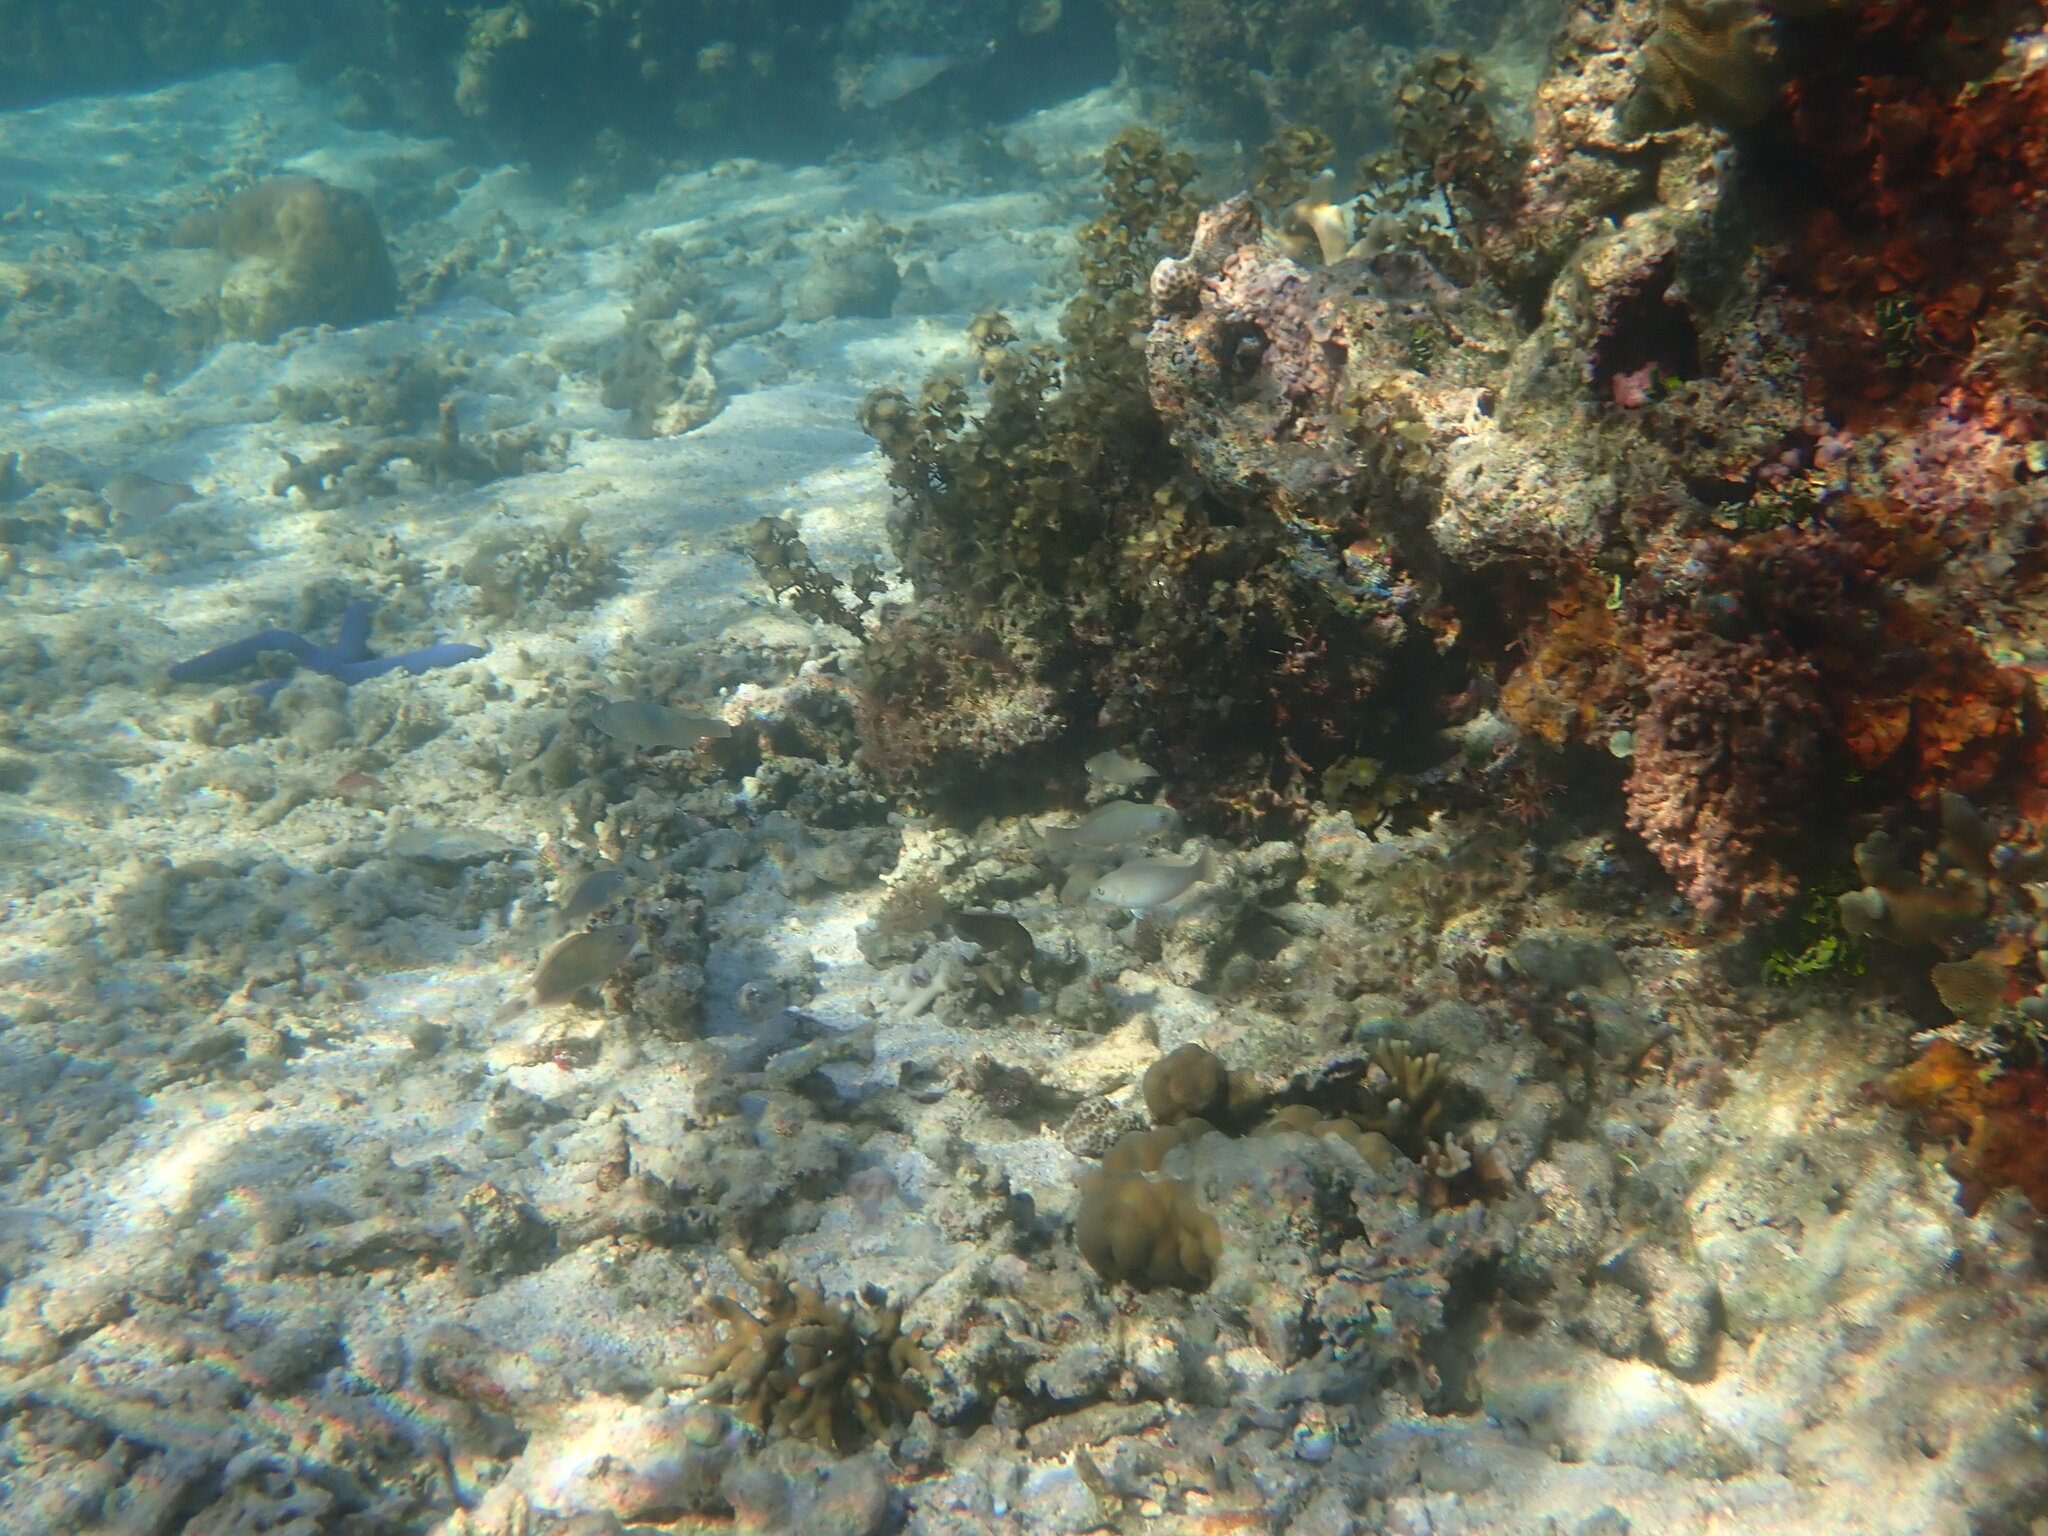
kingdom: Animalia
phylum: Chordata
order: Perciformes
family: Lutjanidae
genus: Lutjanus
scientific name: Lutjanus fulvus
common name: Blacktail snapper
